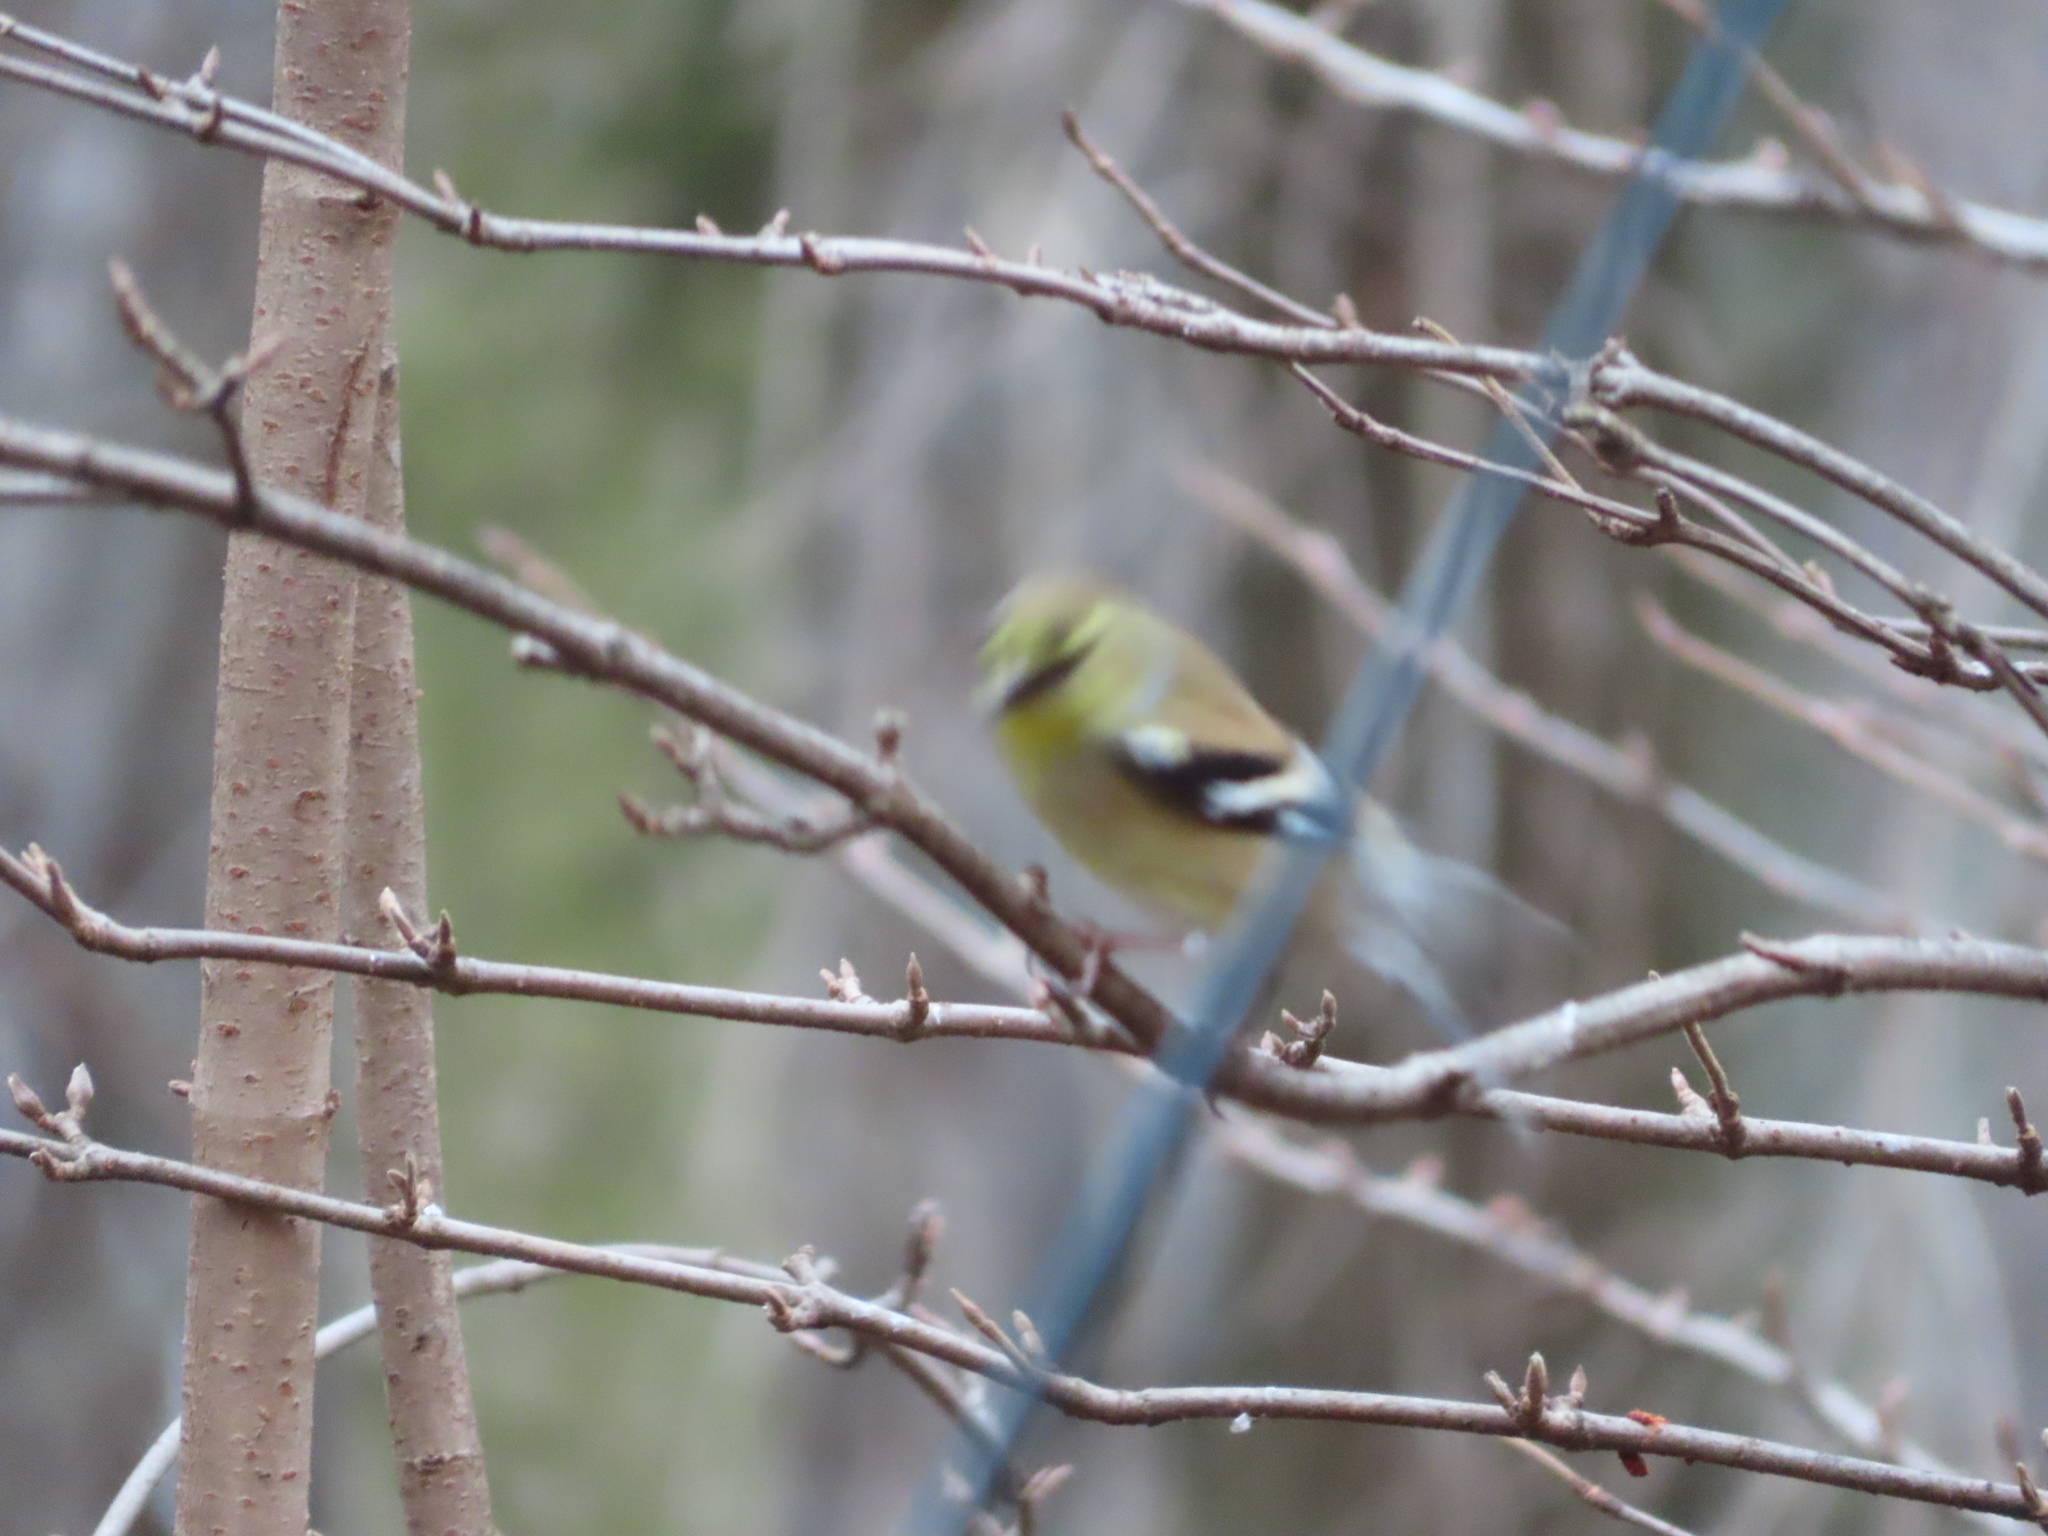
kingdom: Animalia
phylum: Chordata
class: Aves
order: Passeriformes
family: Fringillidae
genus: Spinus
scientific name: Spinus tristis
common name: American goldfinch
